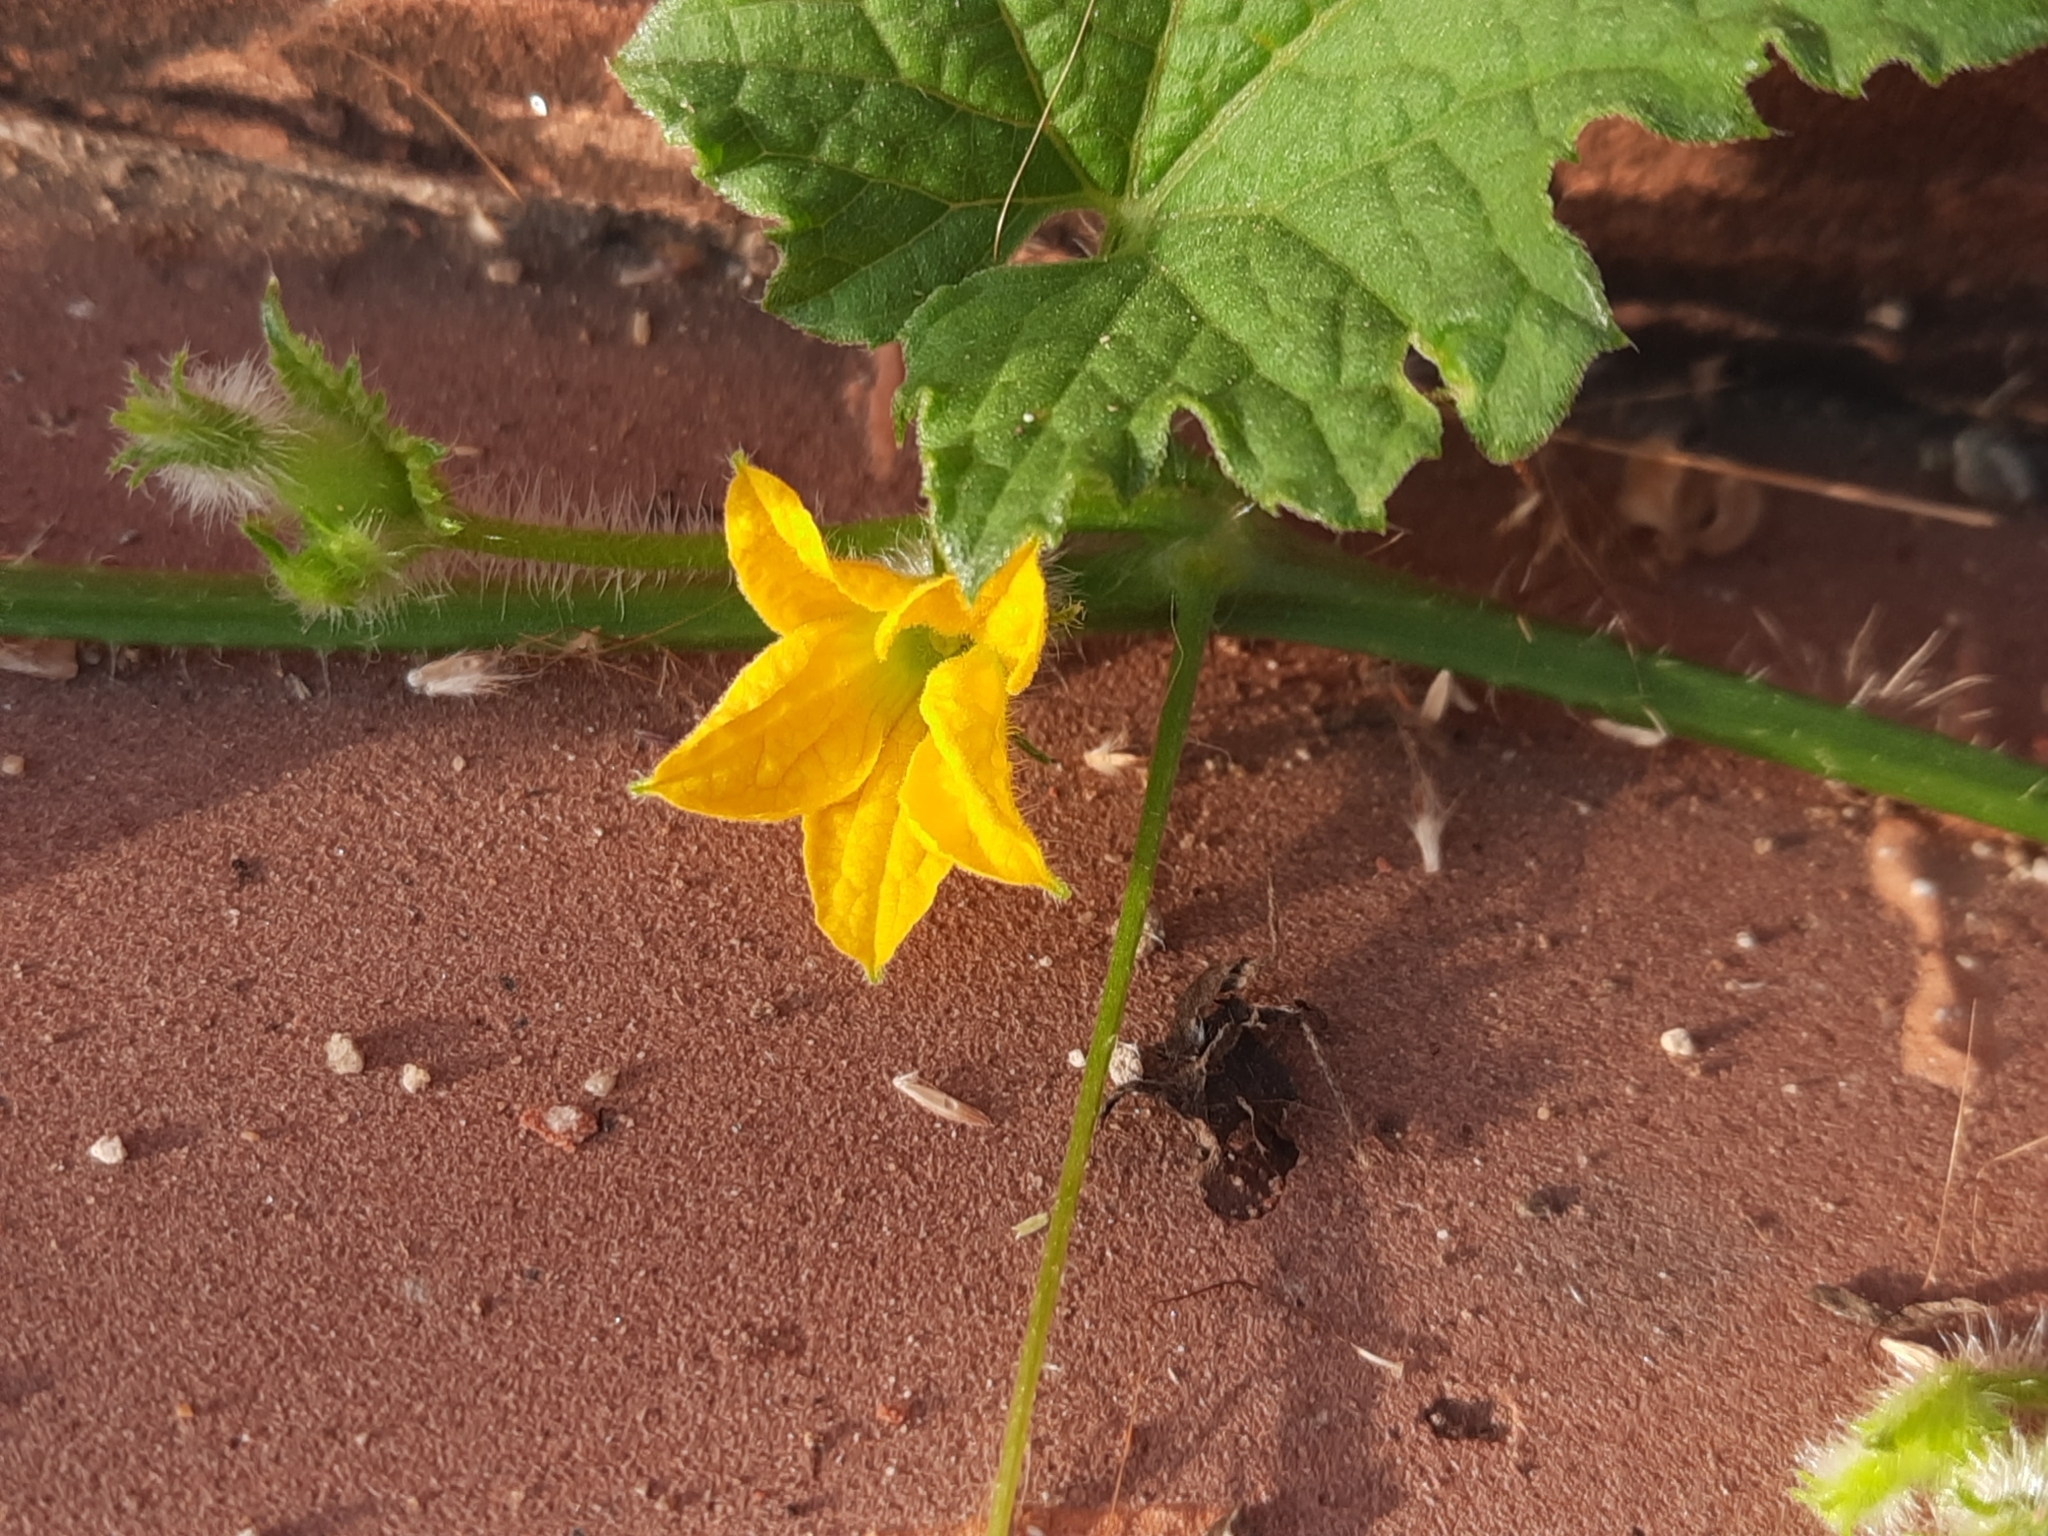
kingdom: Plantae
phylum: Tracheophyta
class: Magnoliopsida
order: Cucurbitales
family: Cucurbitaceae
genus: Cucumis
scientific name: Cucumis maderaspatanus
